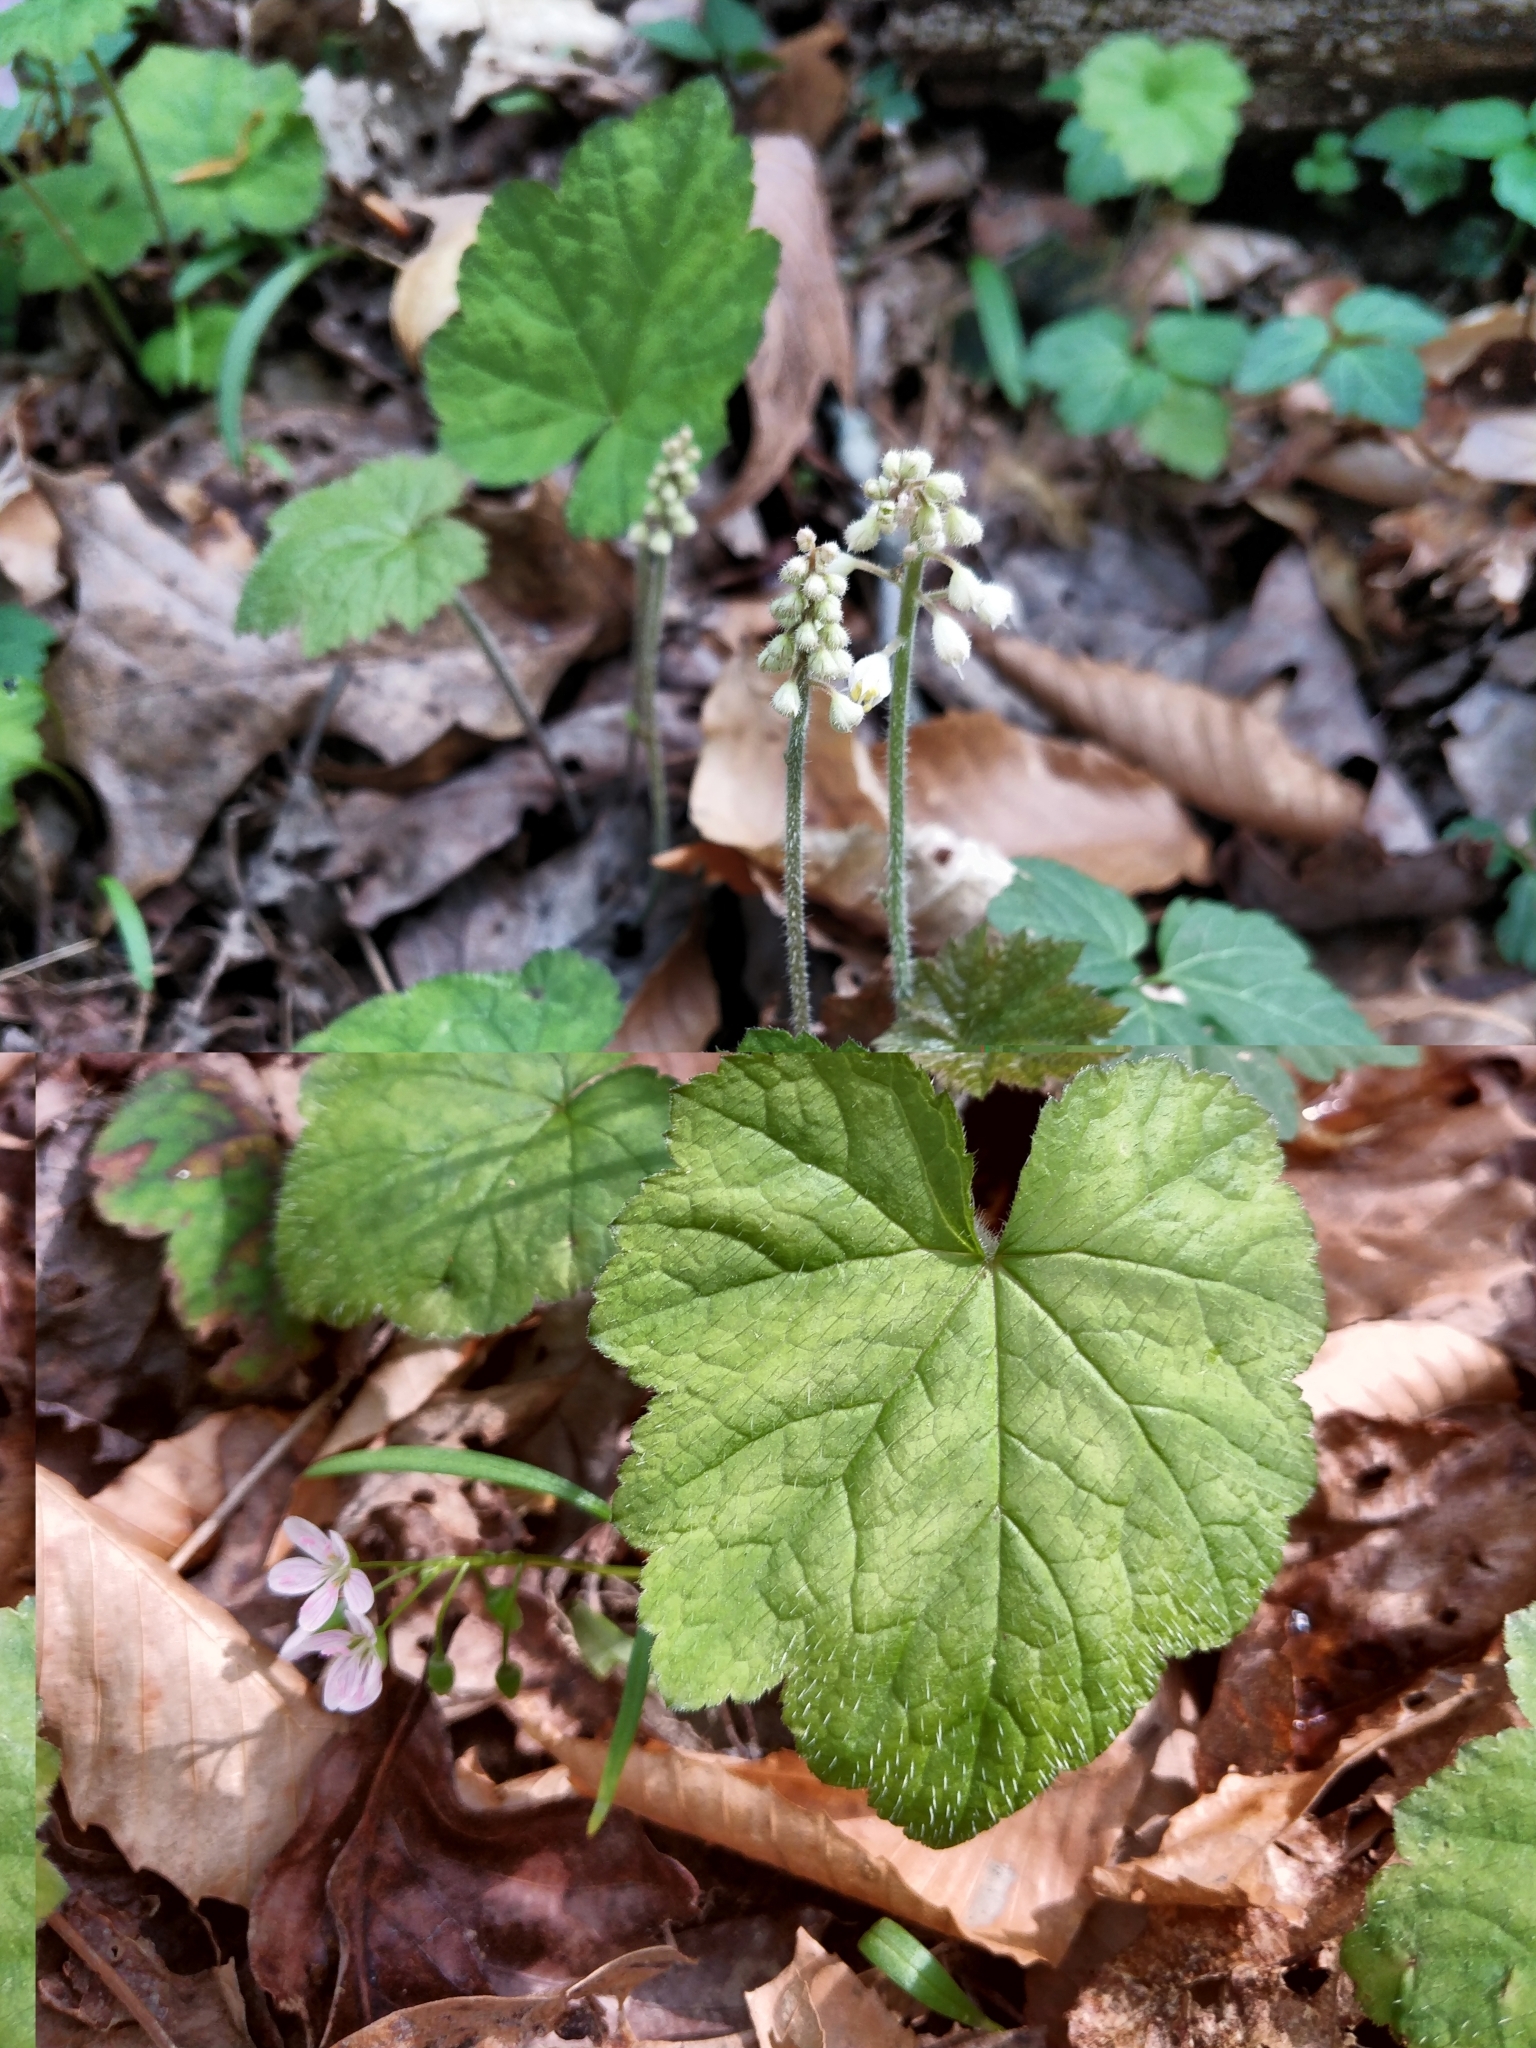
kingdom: Plantae
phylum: Tracheophyta
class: Magnoliopsida
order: Saxifragales
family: Saxifragaceae
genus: Tiarella
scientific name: Tiarella stolonifera
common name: Stoloniferous foamflower
